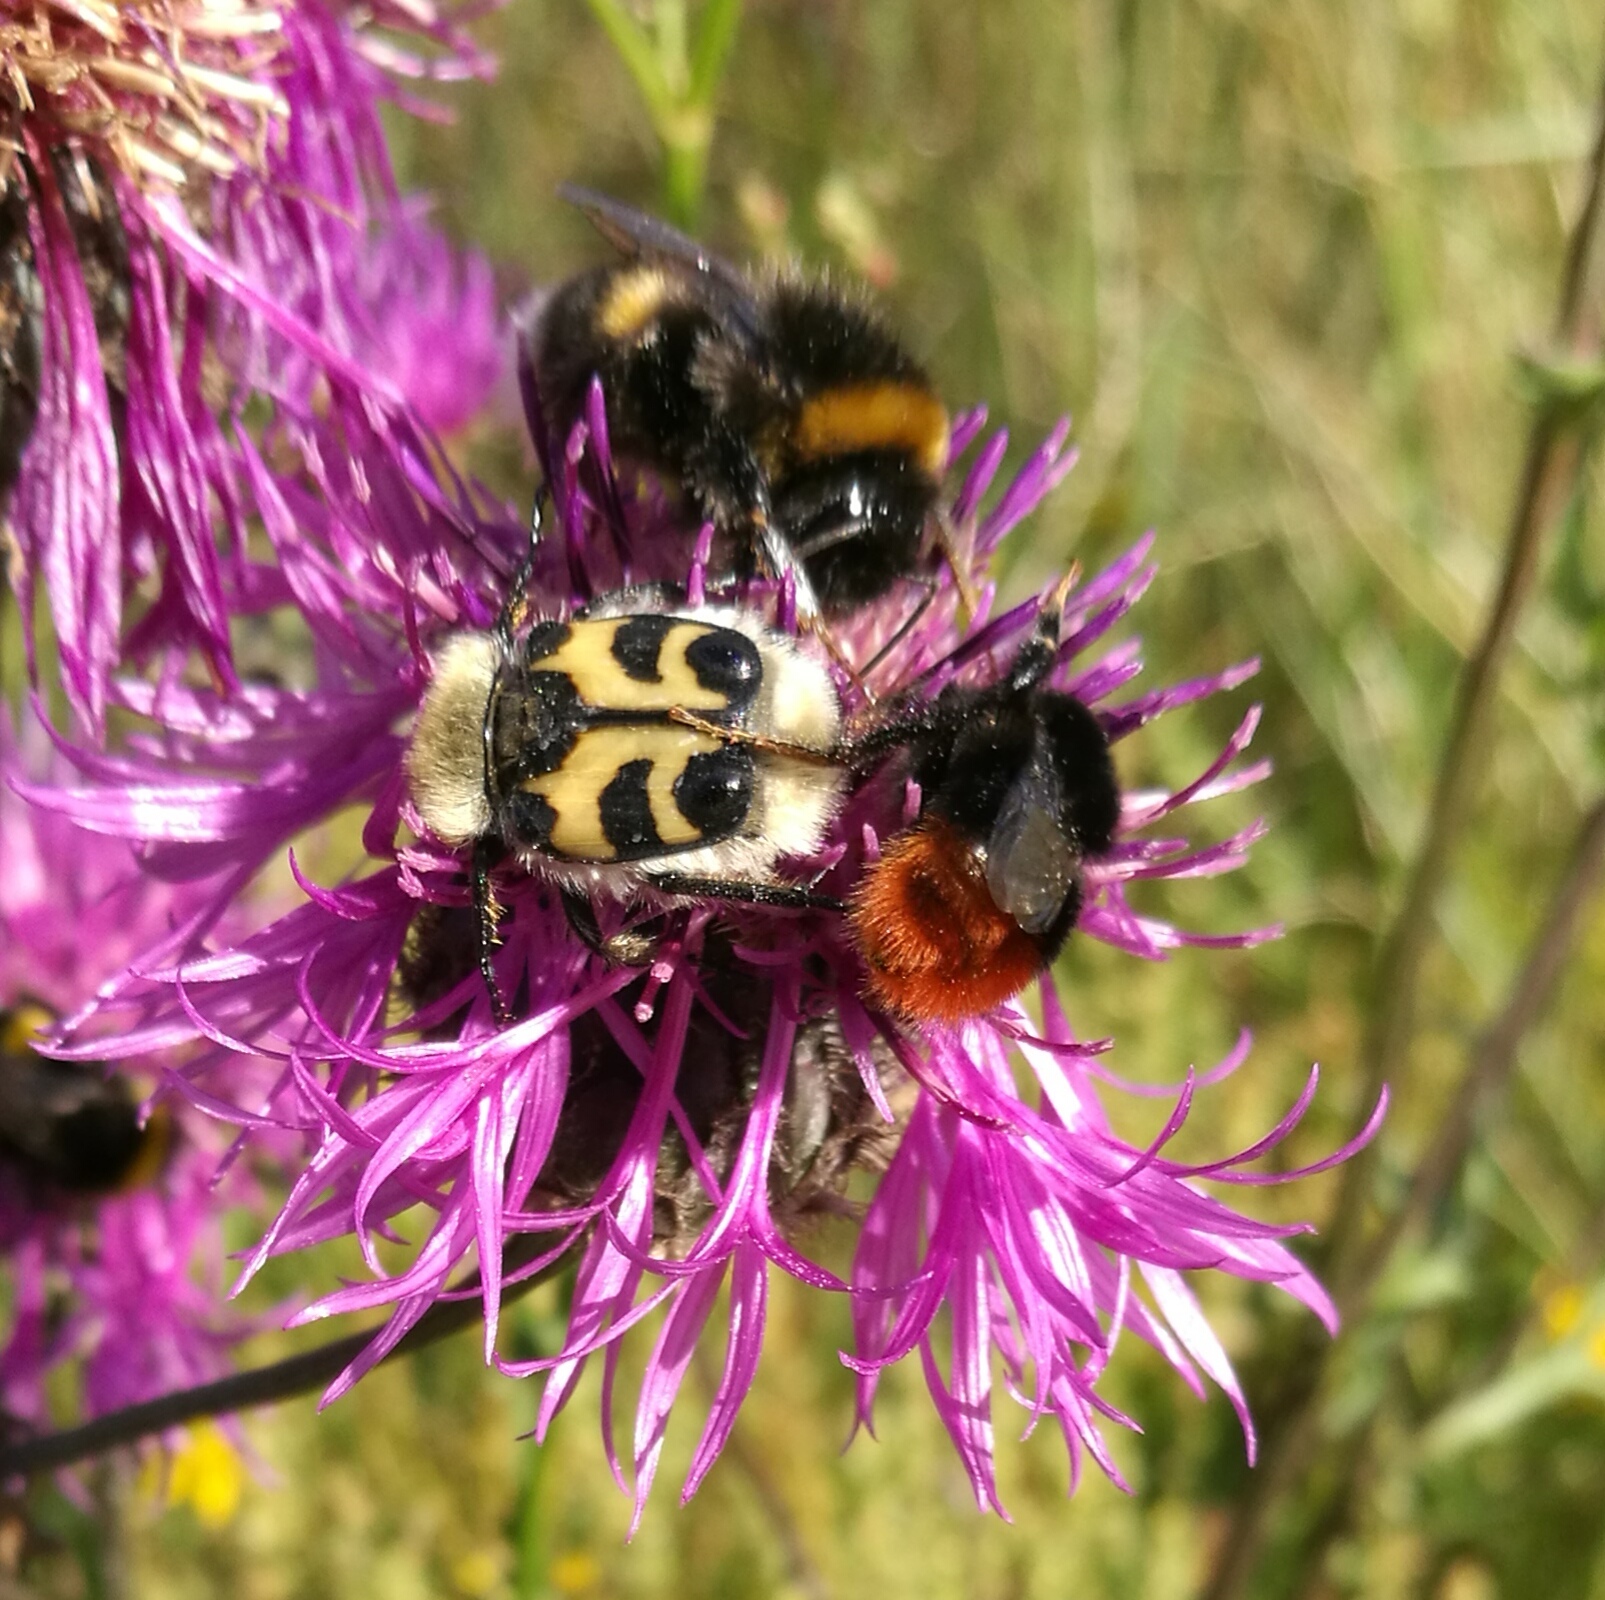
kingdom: Animalia
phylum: Arthropoda
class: Insecta
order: Coleoptera
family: Scarabaeidae
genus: Trichius
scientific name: Trichius fasciatus
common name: Bee beetle
